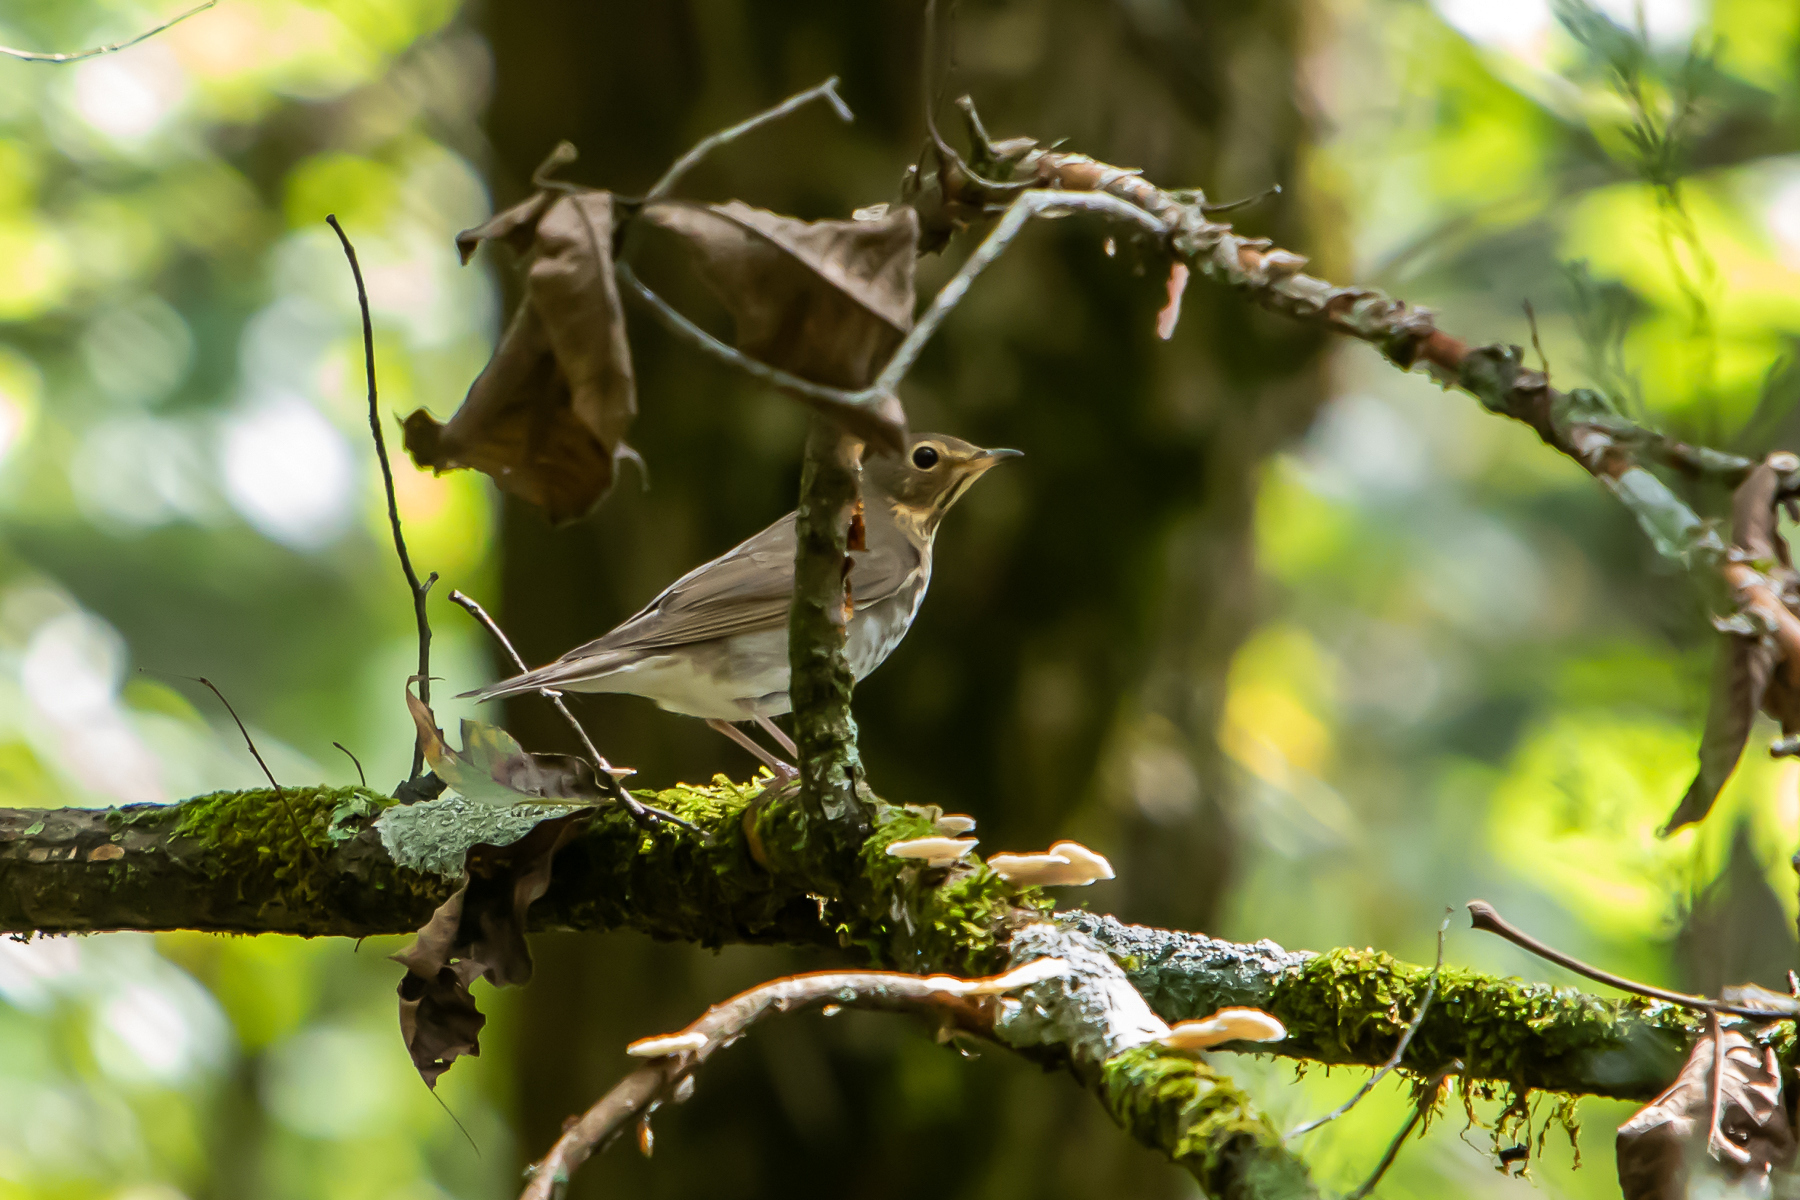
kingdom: Animalia
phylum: Chordata
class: Aves
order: Passeriformes
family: Turdidae
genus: Catharus
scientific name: Catharus ustulatus
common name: Swainson's thrush
